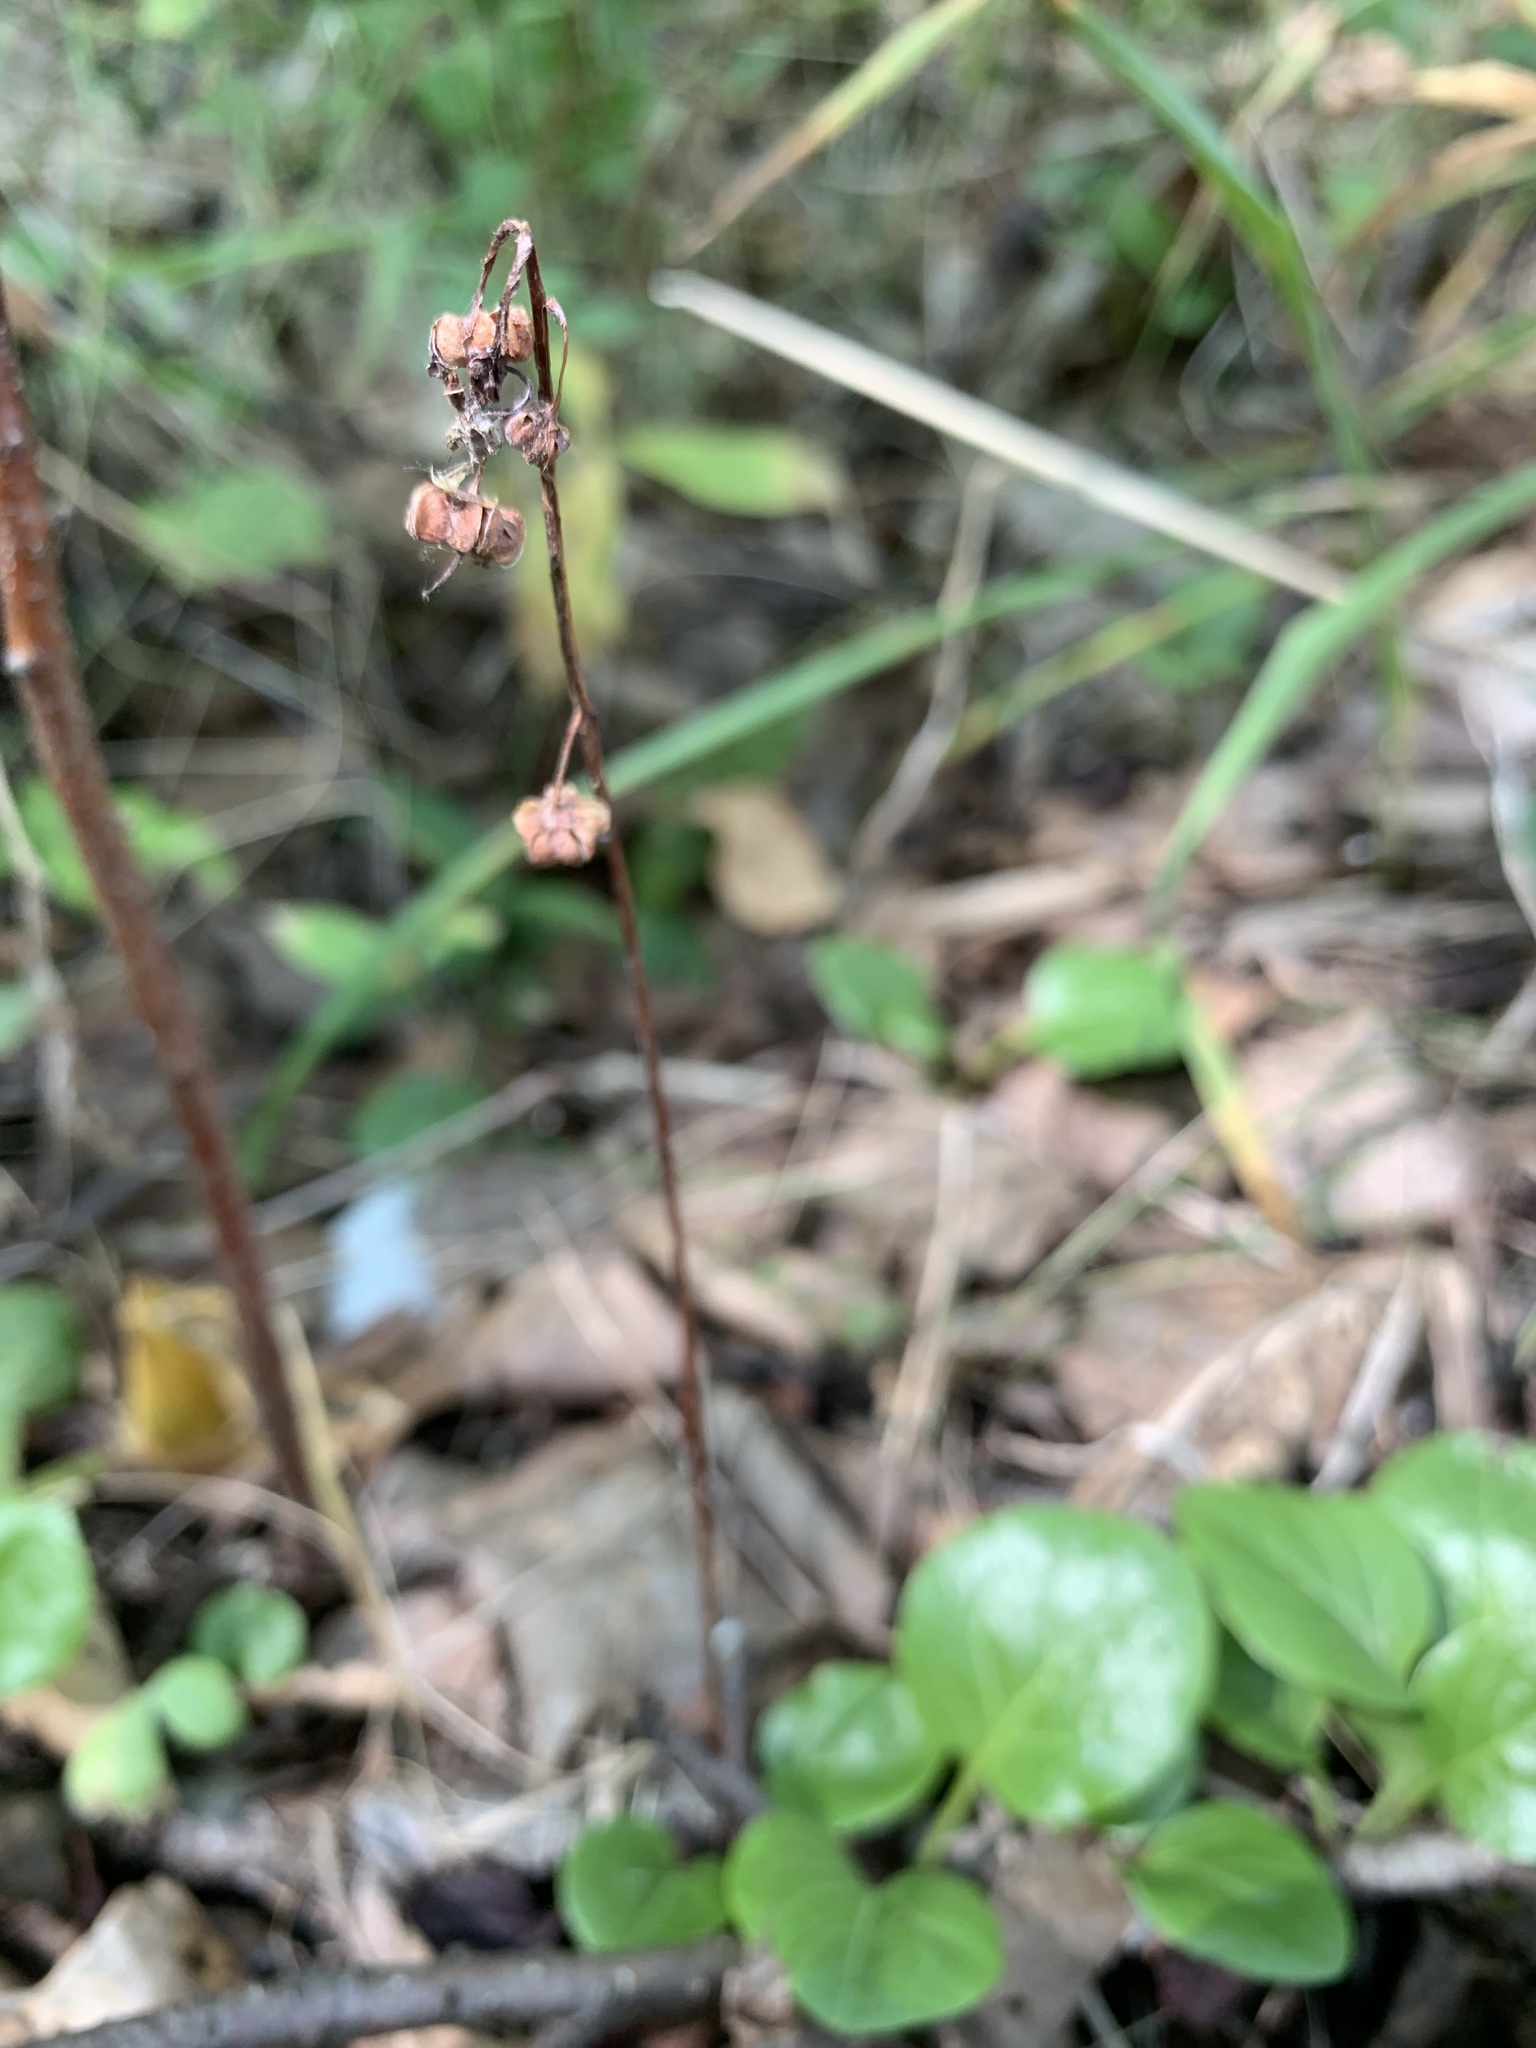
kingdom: Plantae
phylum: Tracheophyta
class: Magnoliopsida
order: Ericales
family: Ericaceae
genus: Pyrola
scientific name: Pyrola rotundifolia
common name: Round-leaved wintergreen
